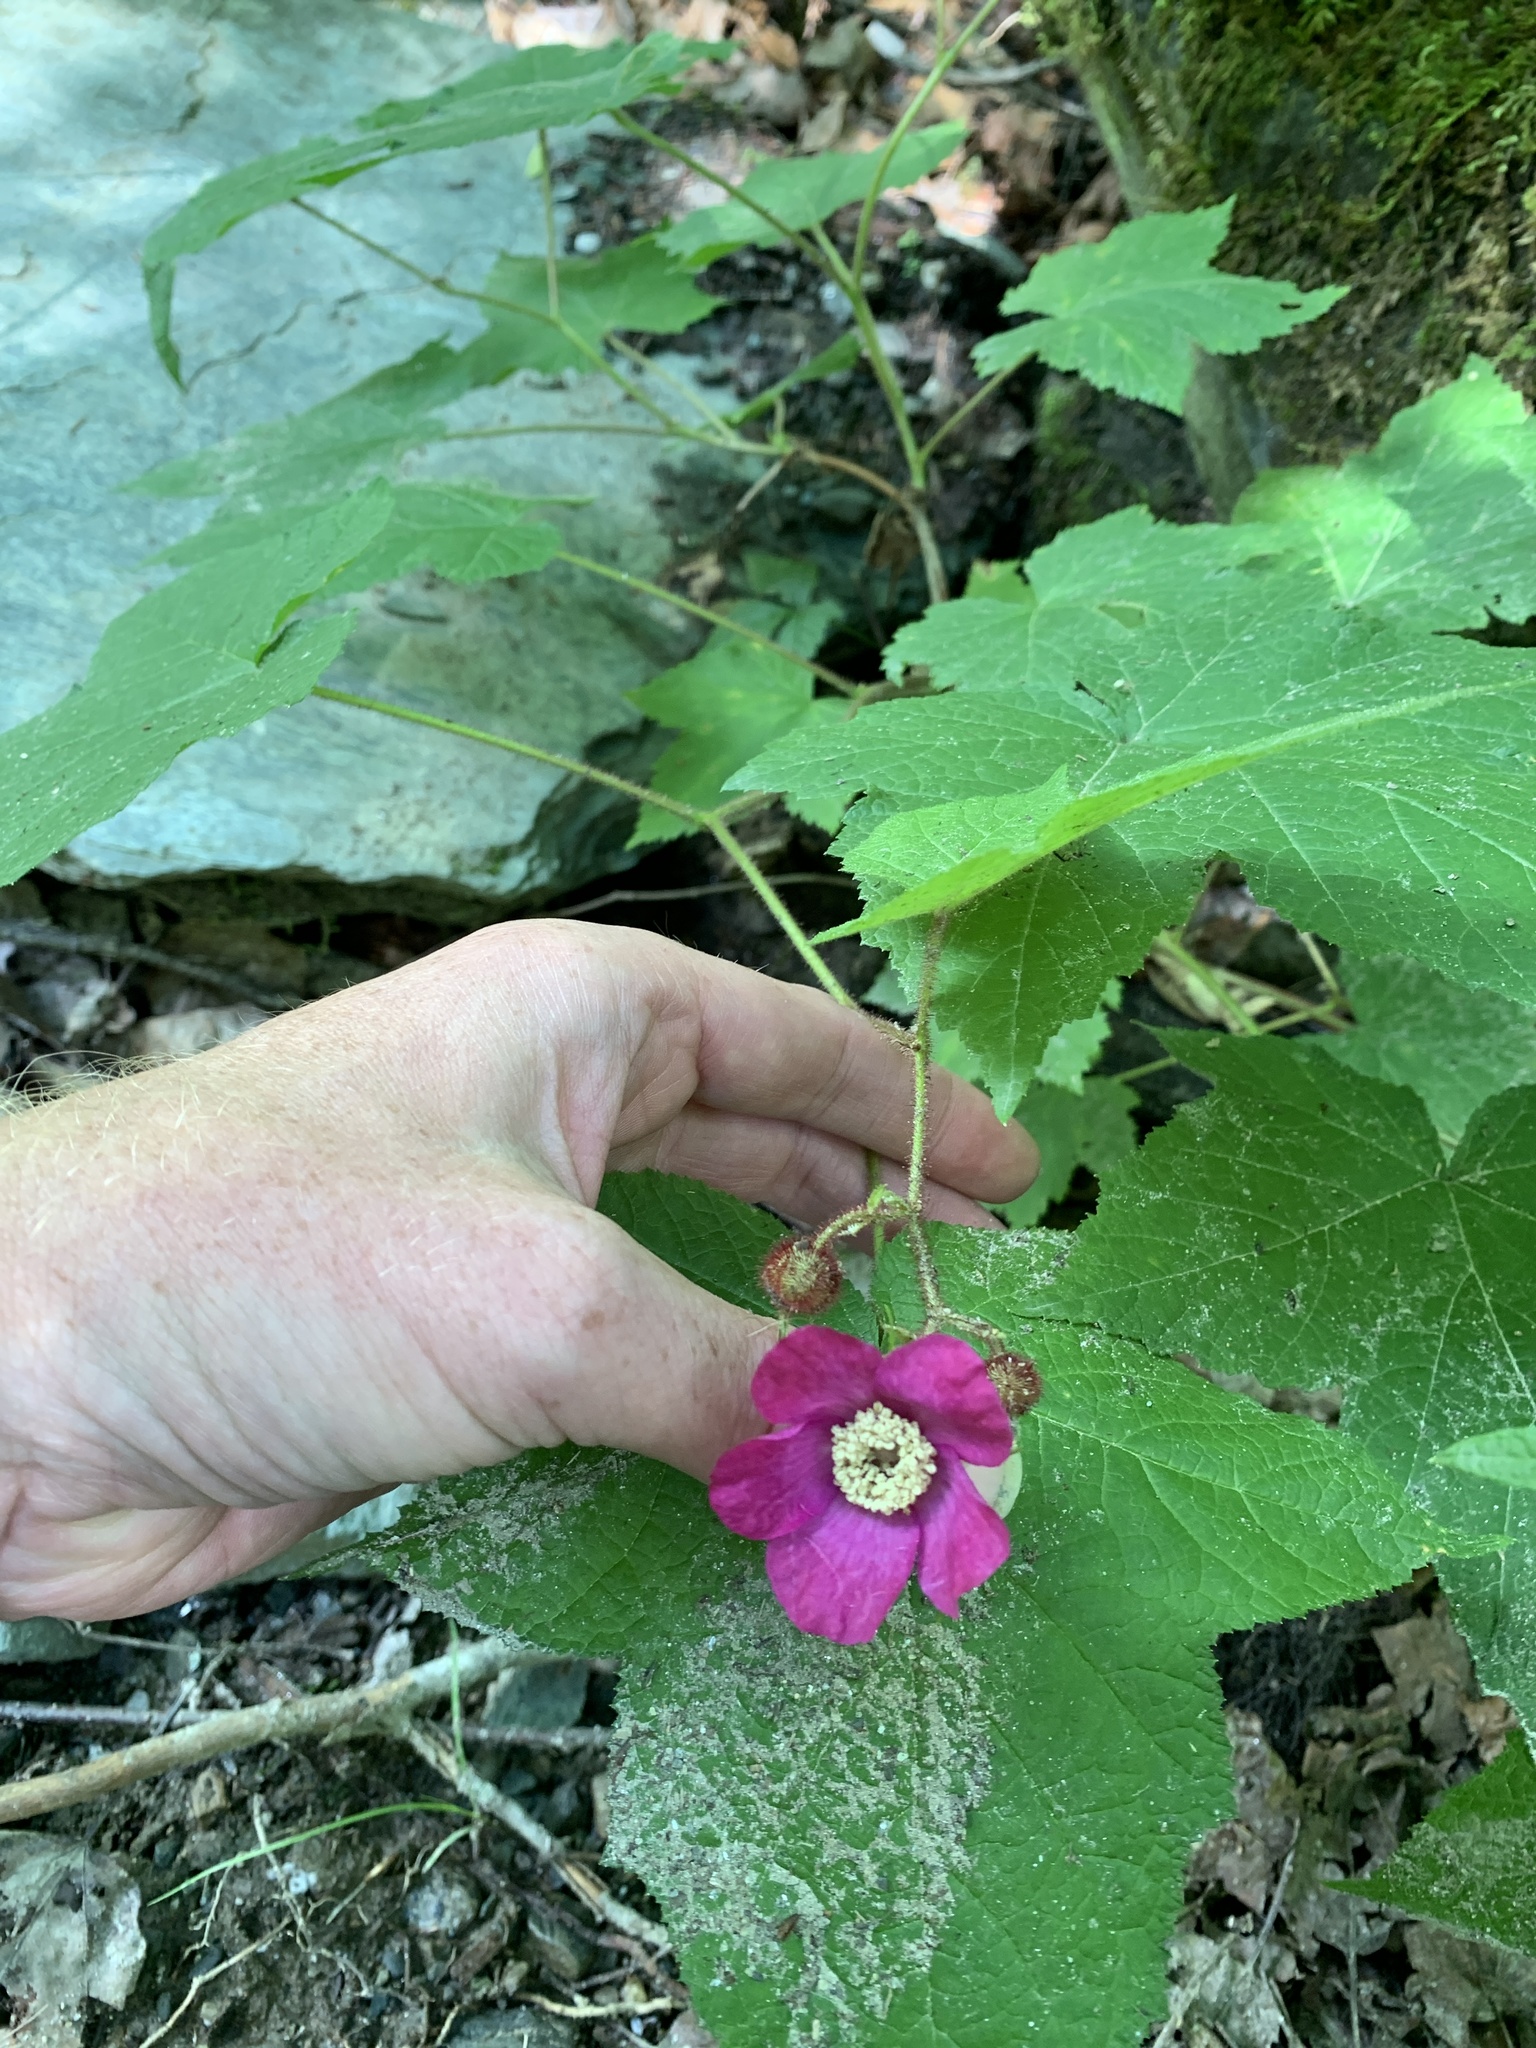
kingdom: Plantae
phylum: Tracheophyta
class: Magnoliopsida
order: Rosales
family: Rosaceae
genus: Rubus
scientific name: Rubus odoratus
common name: Purple-flowered raspberry
